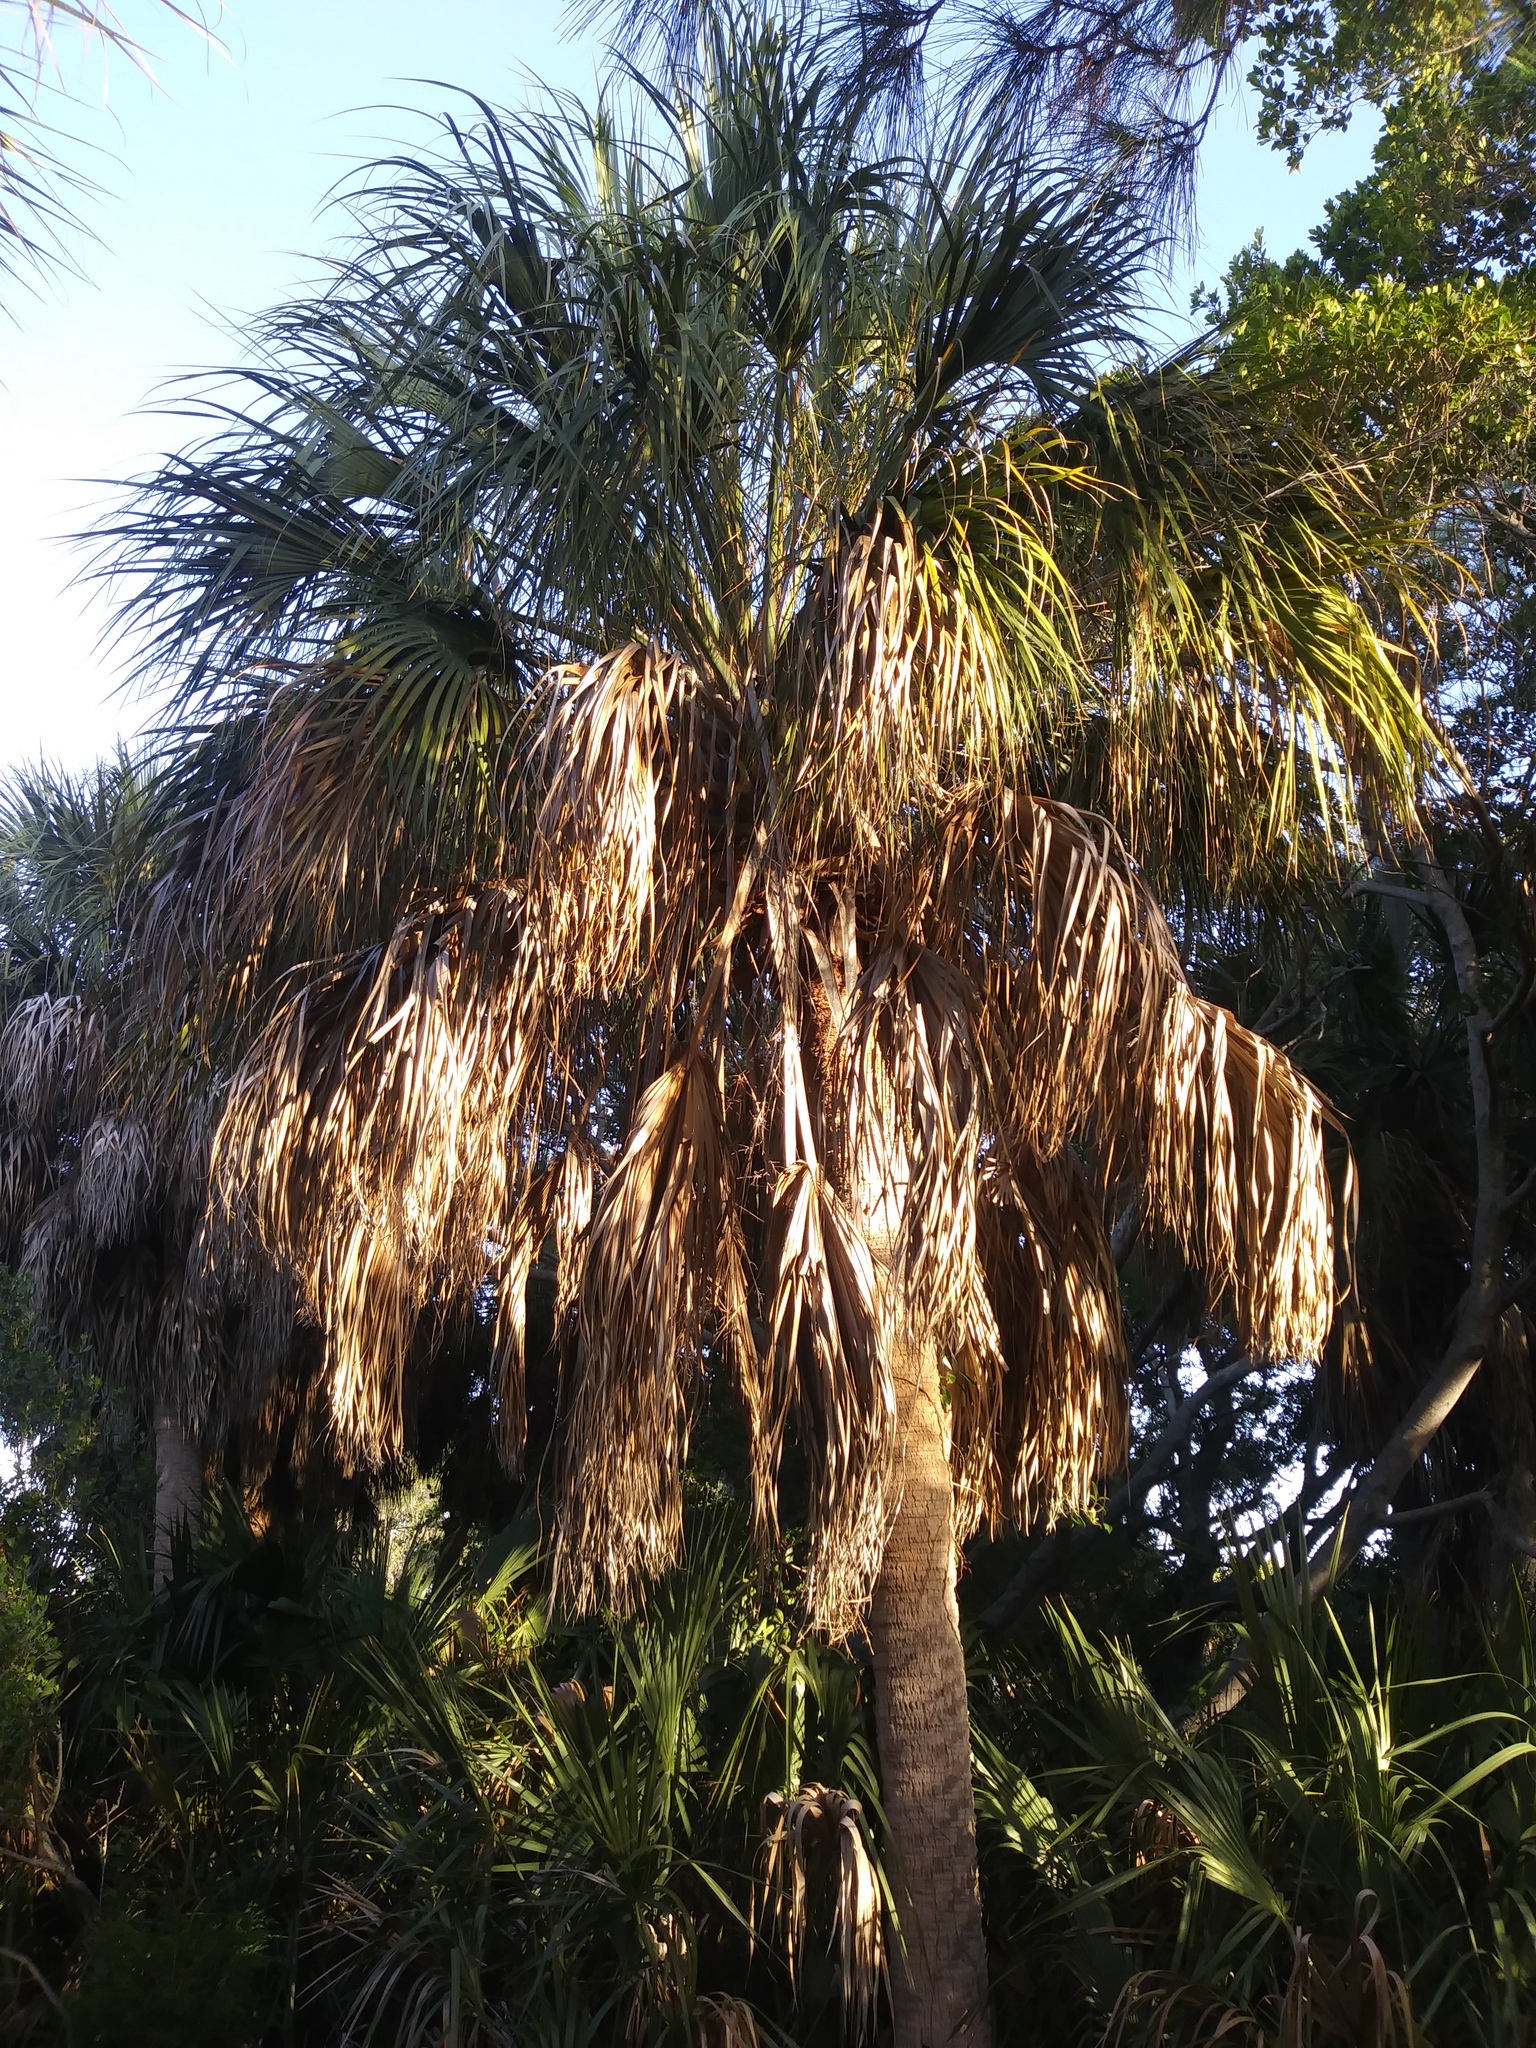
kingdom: Plantae
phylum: Tracheophyta
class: Liliopsida
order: Arecales
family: Arecaceae
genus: Sabal
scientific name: Sabal palmetto
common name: Blue palmetto
